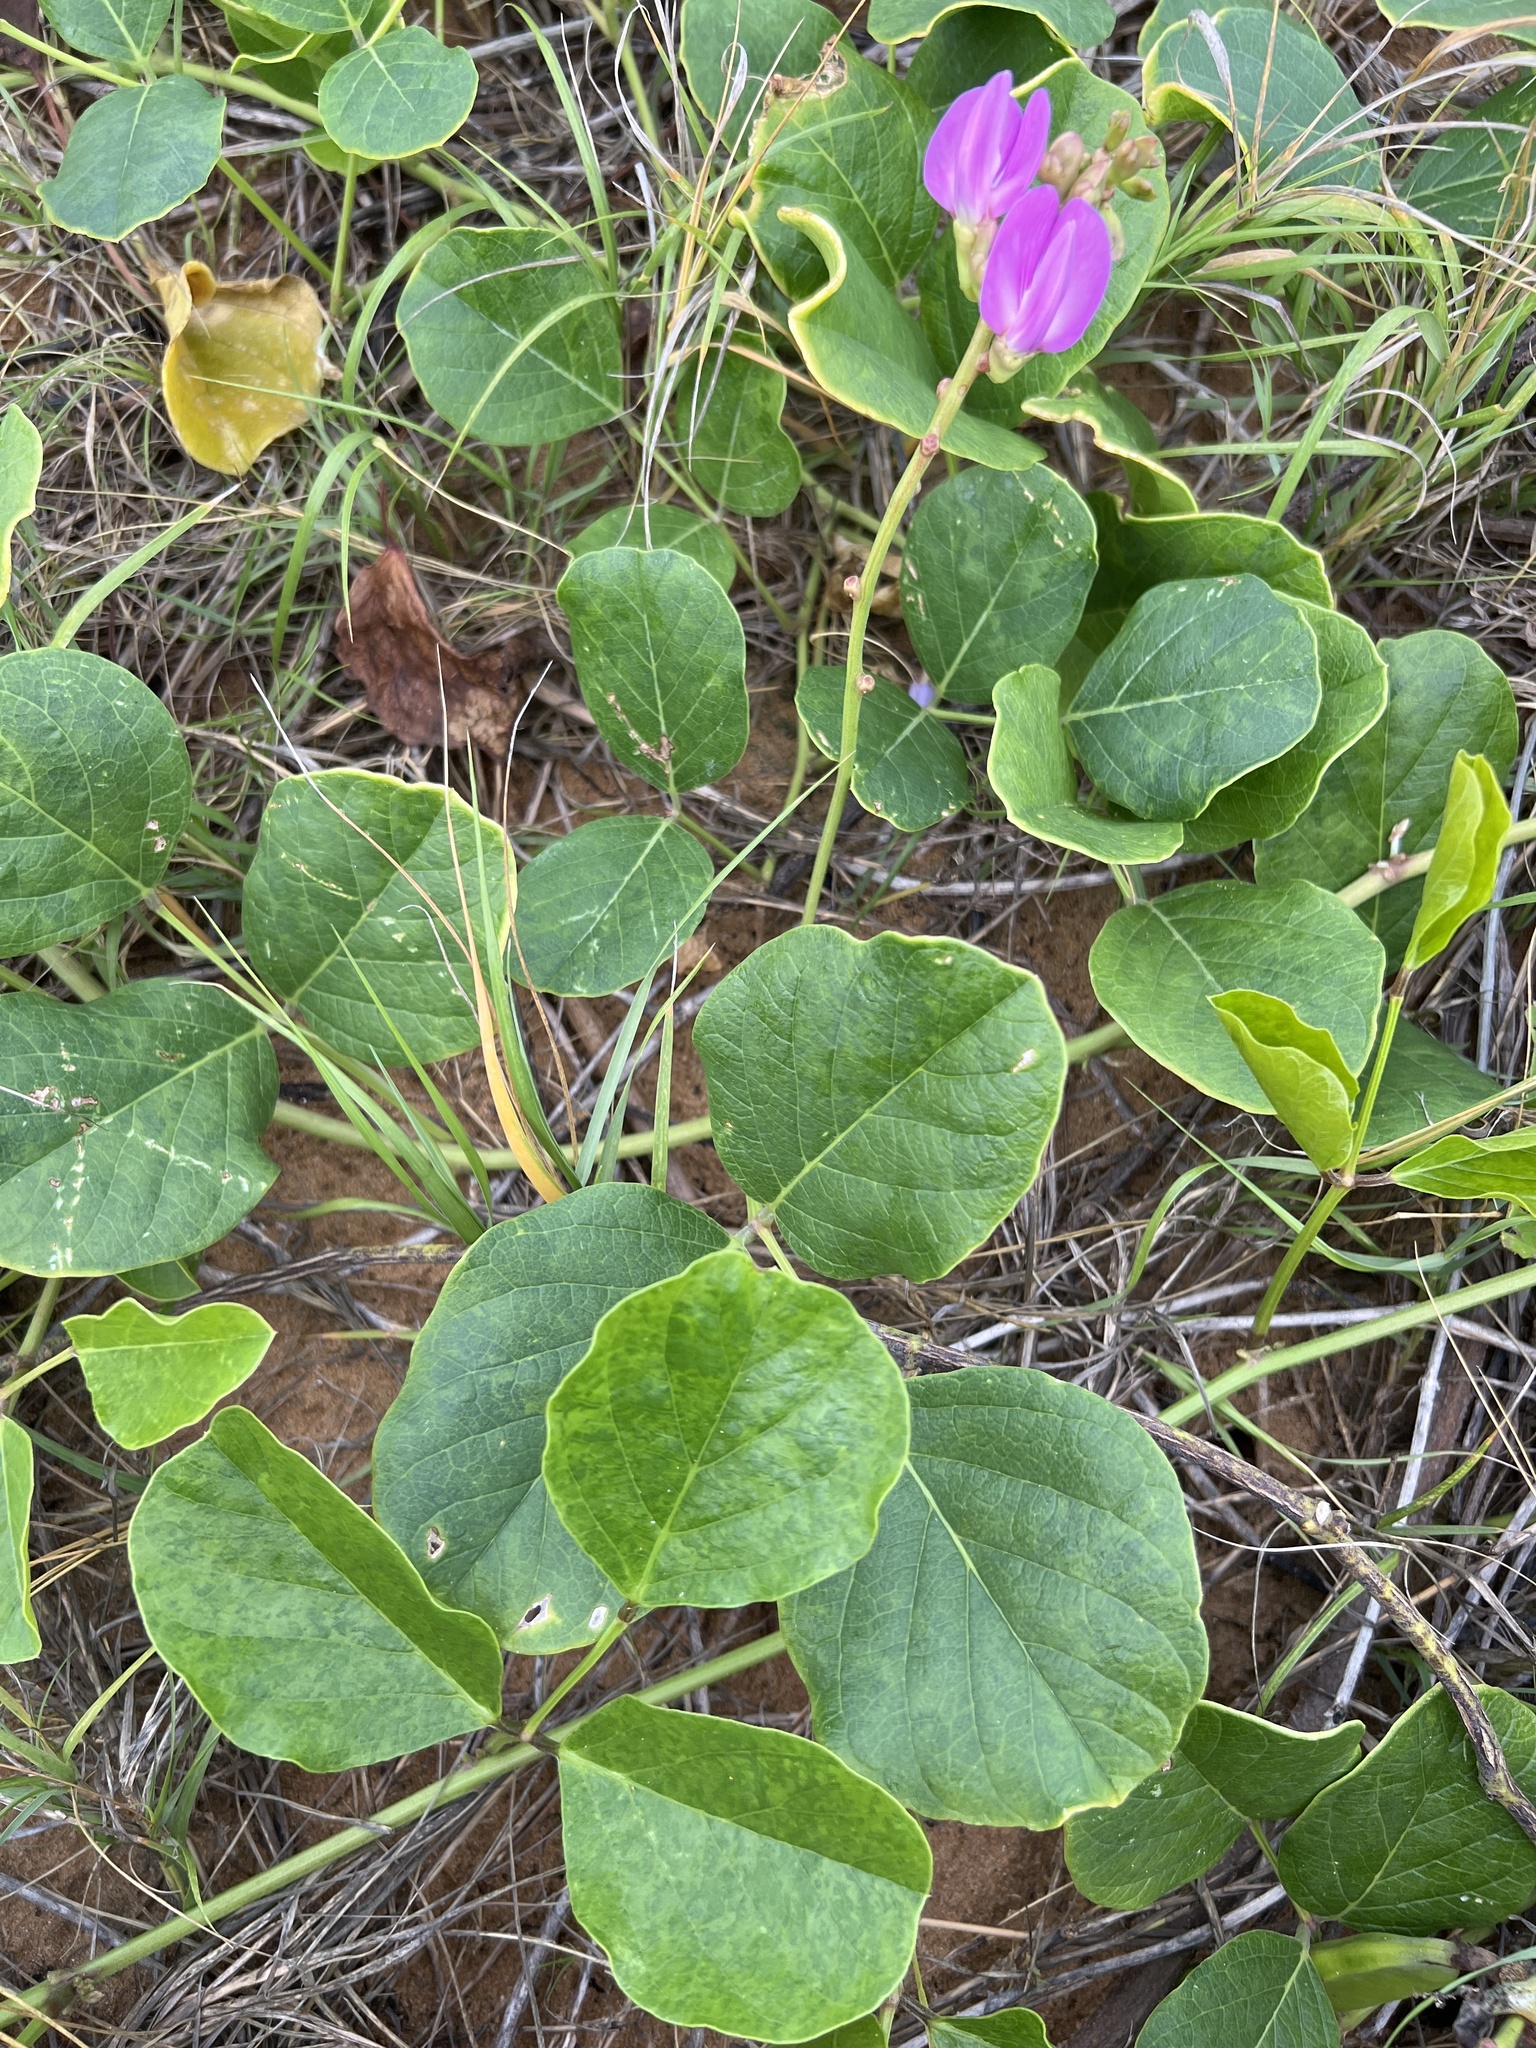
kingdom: Plantae
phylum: Tracheophyta
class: Magnoliopsida
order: Fabales
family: Fabaceae
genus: Canavalia
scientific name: Canavalia rosea
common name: Beach-bean
